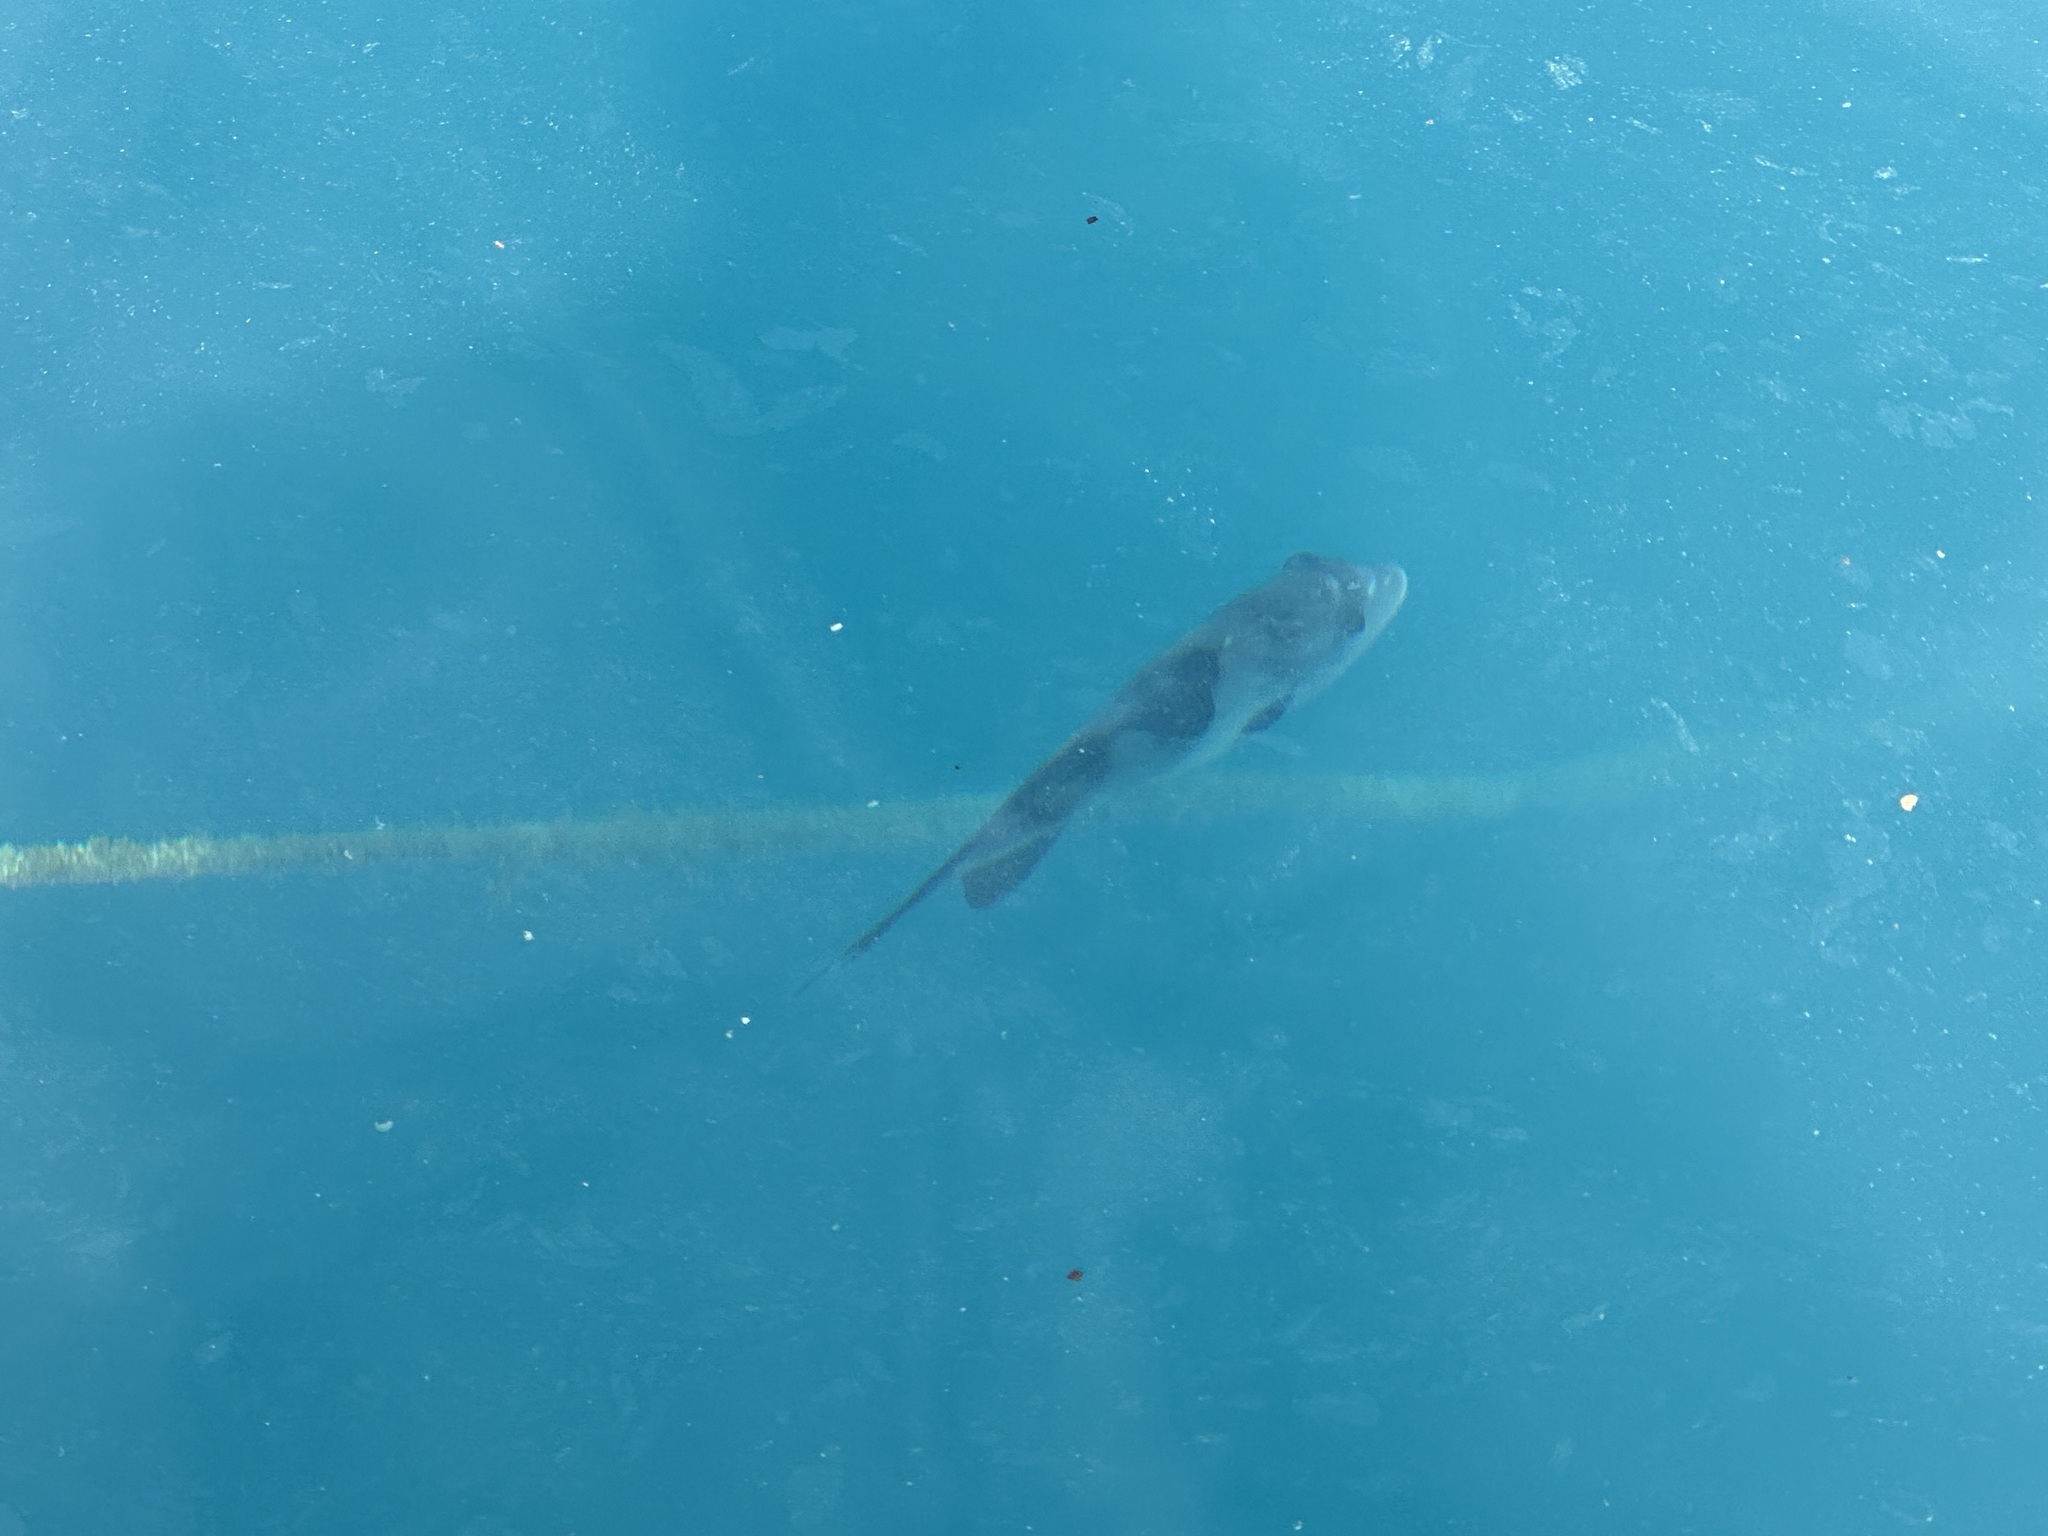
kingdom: Animalia
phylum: Chordata
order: Tetraodontiformes
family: Balistidae
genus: Balistes
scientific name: Balistes capriscus
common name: Grey triggerfish
